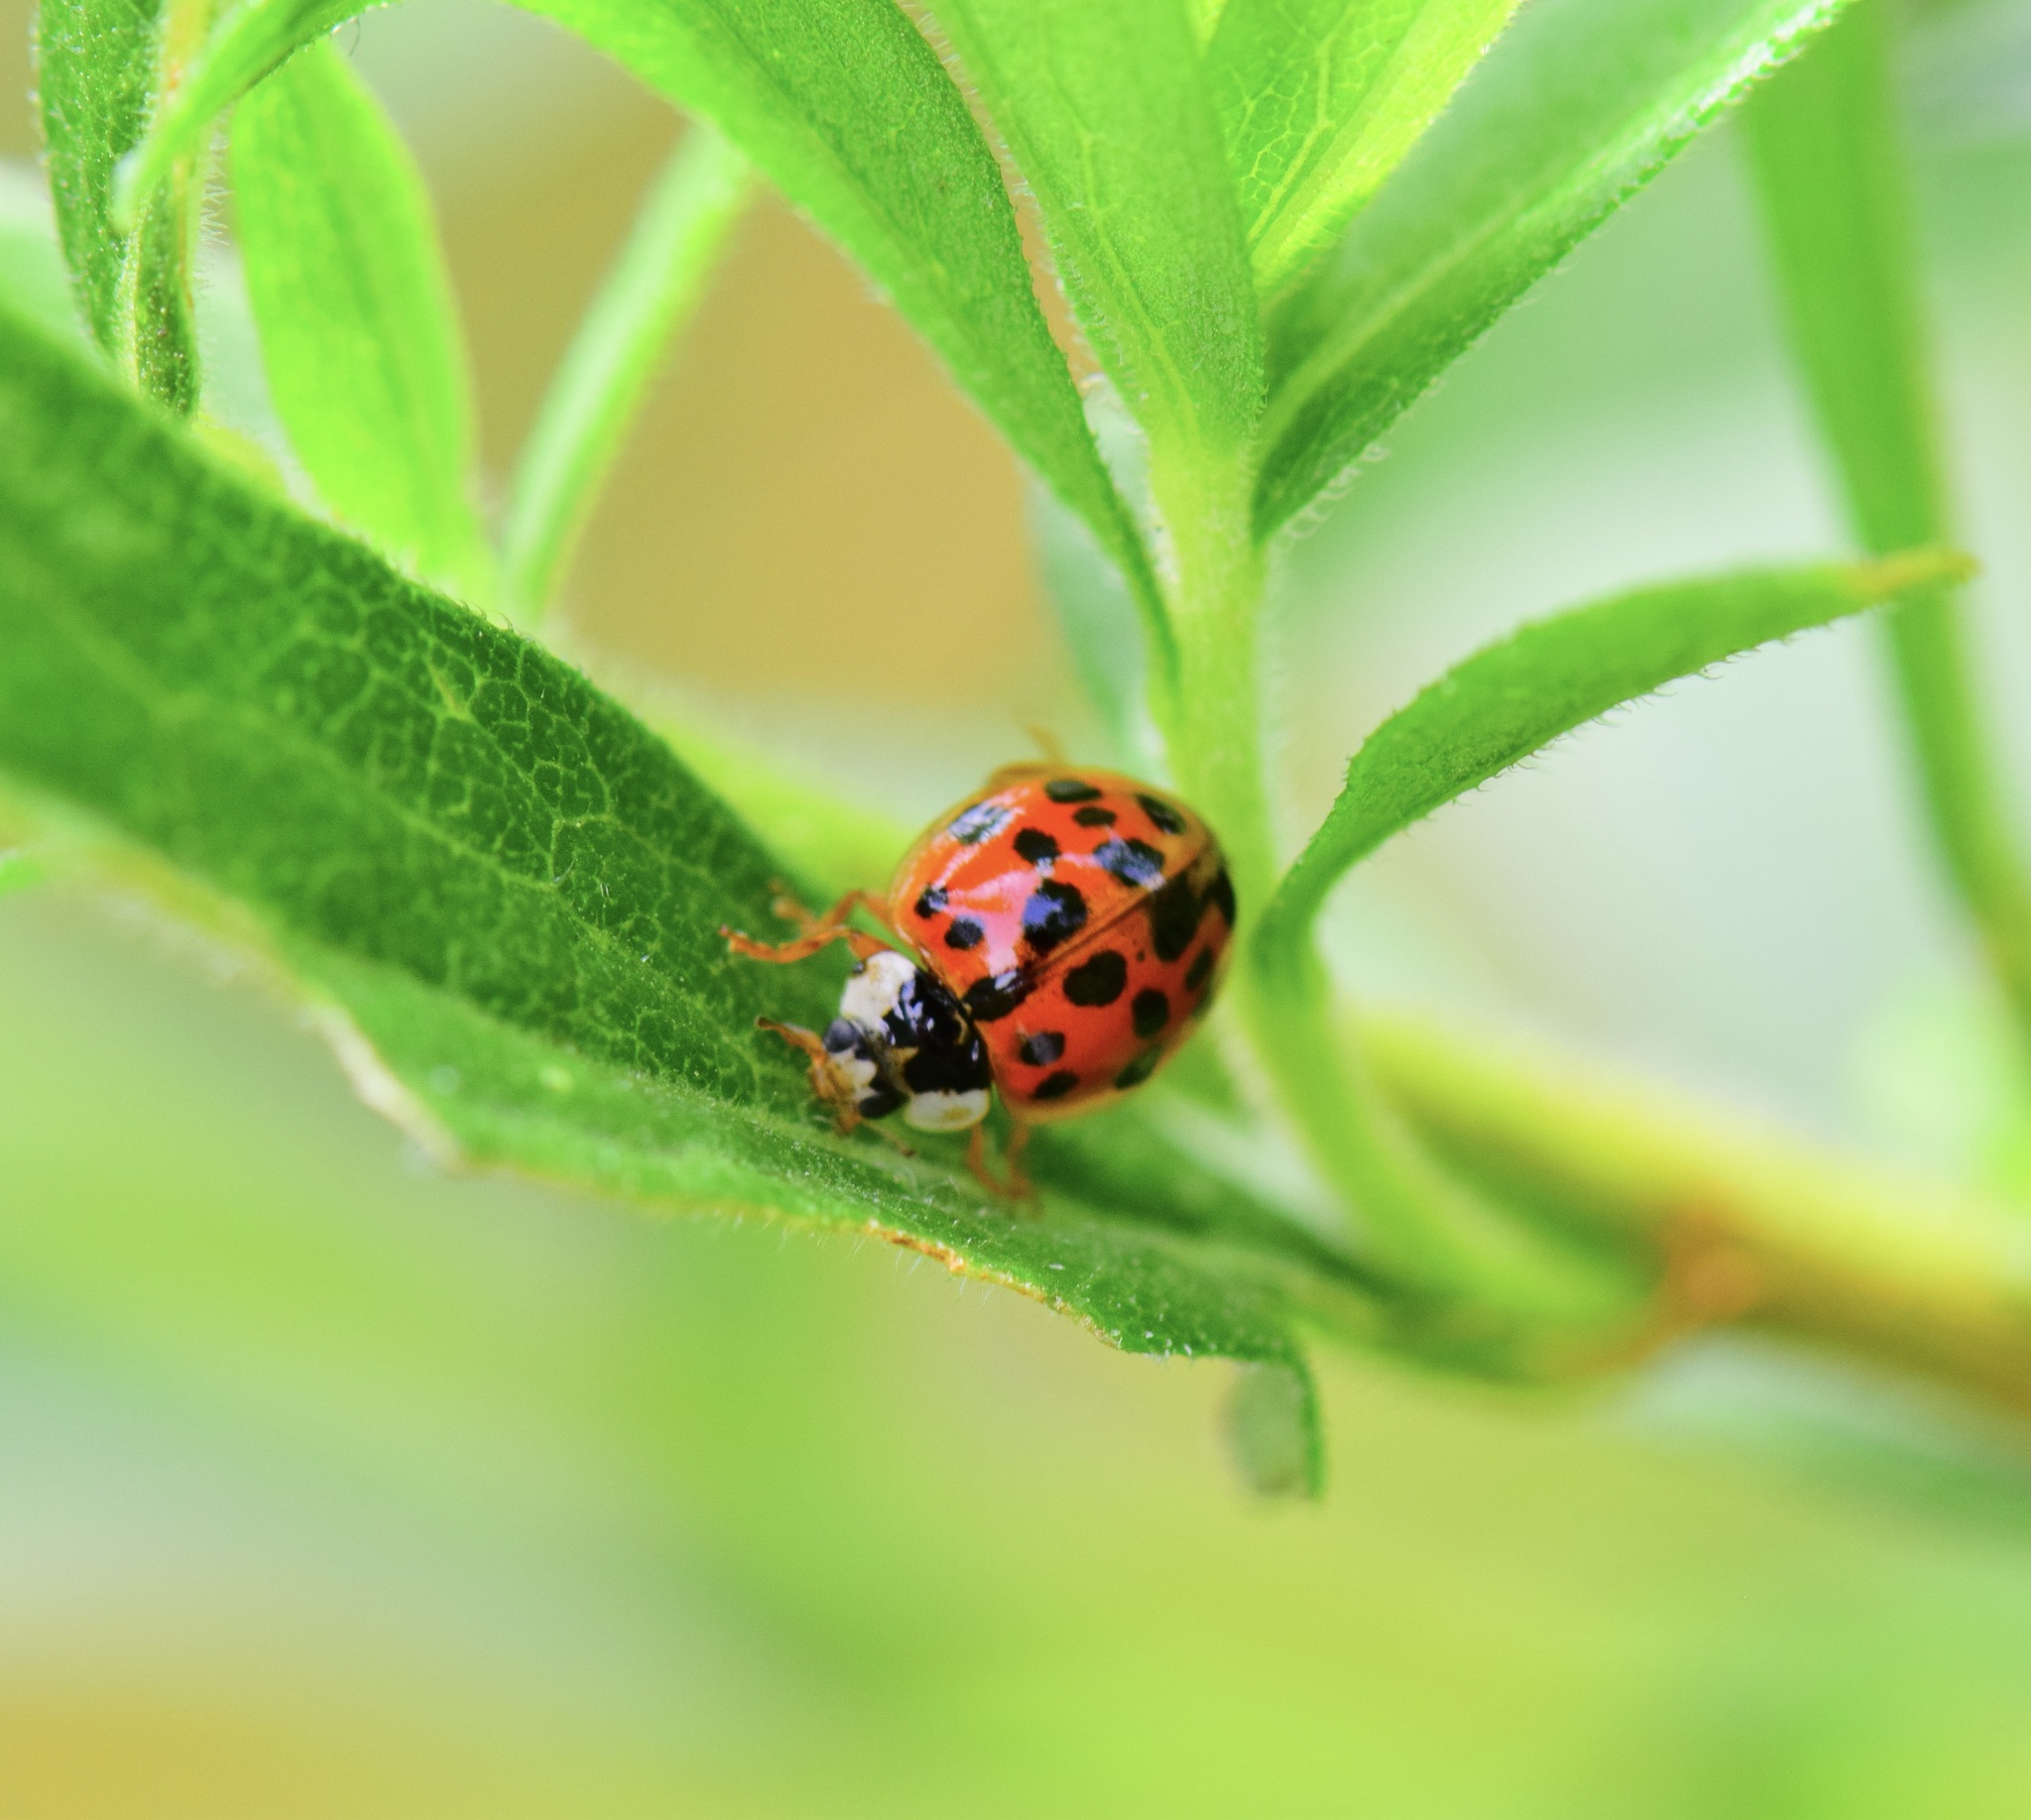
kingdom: Animalia
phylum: Arthropoda
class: Insecta
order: Coleoptera
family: Coccinellidae
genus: Harmonia
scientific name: Harmonia axyridis
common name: Harlequin ladybird
